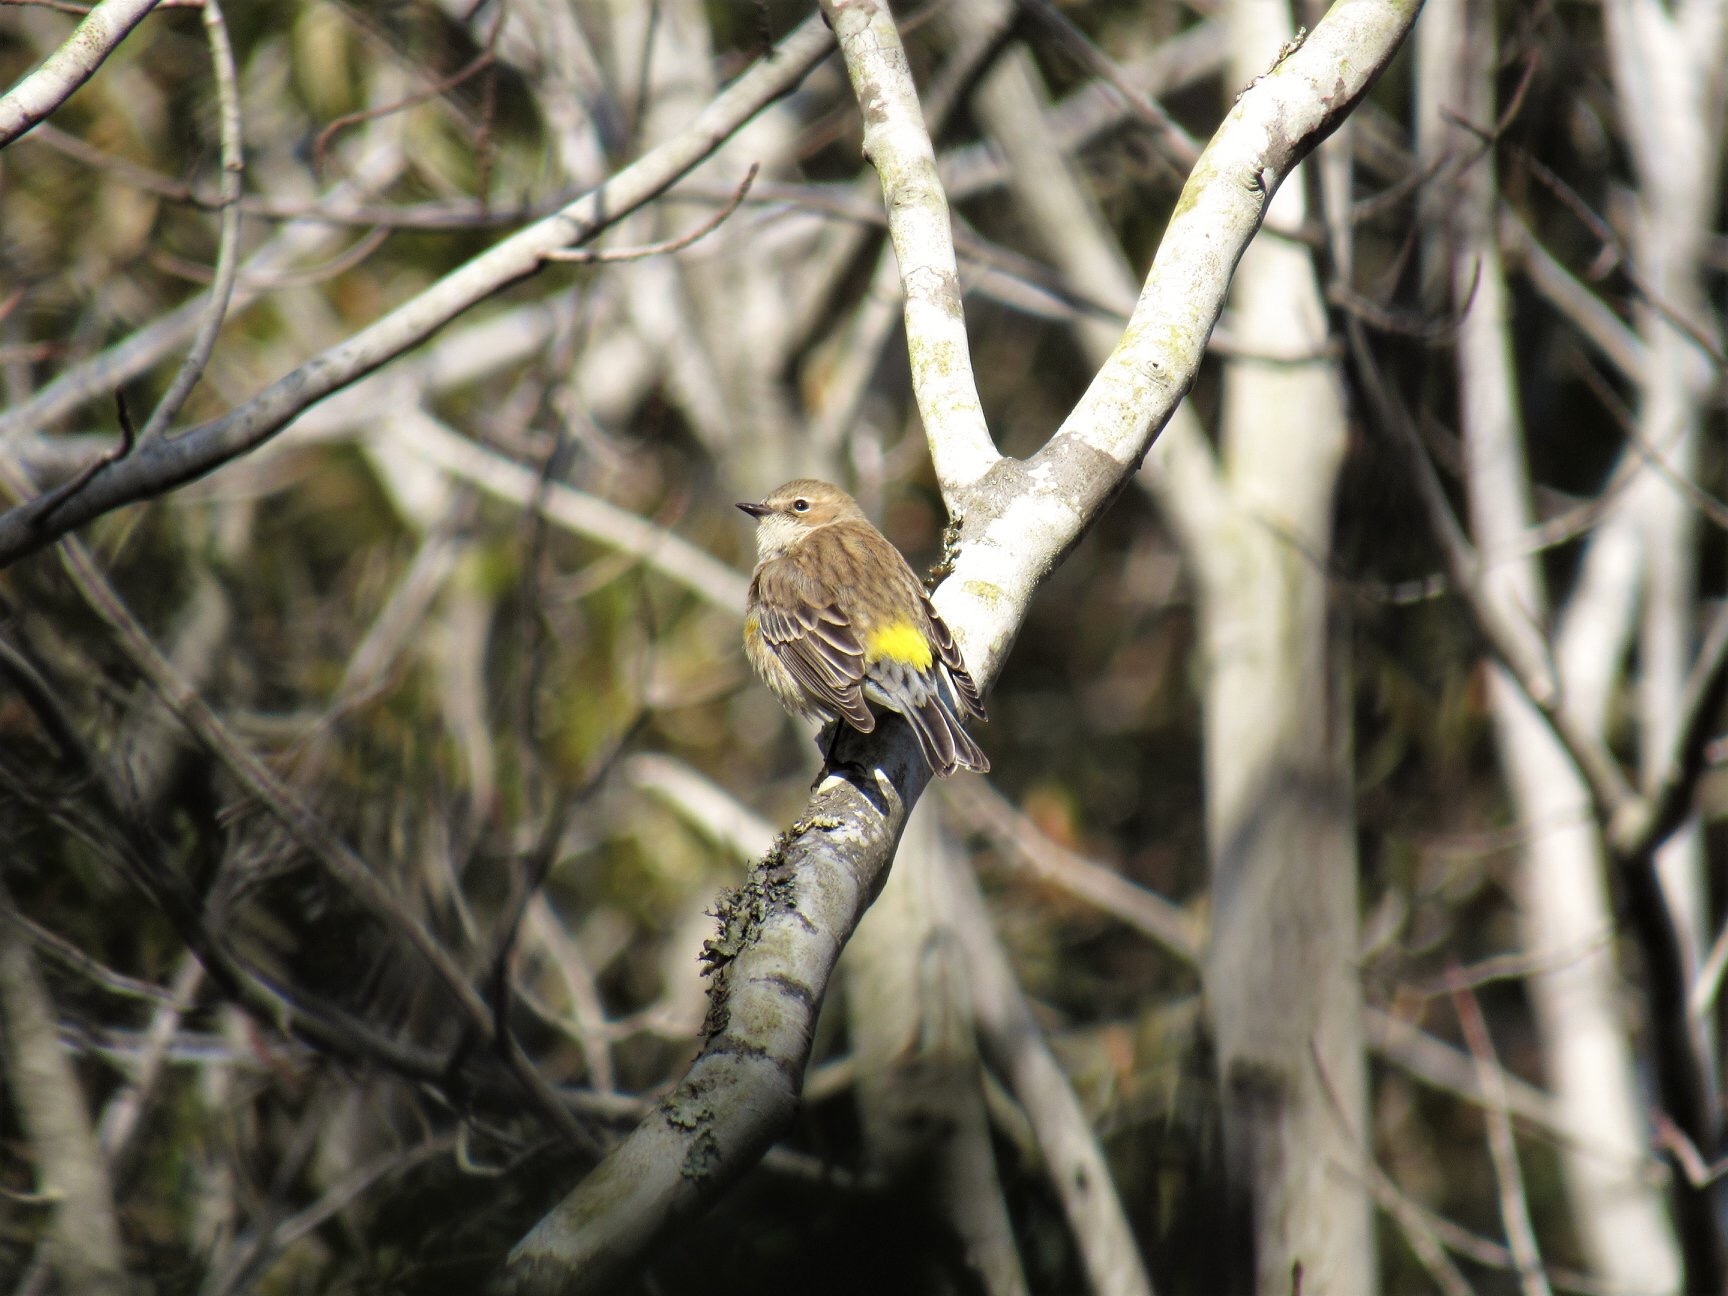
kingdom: Animalia
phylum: Chordata
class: Aves
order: Passeriformes
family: Parulidae
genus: Setophaga
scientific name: Setophaga coronata
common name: Myrtle warbler
